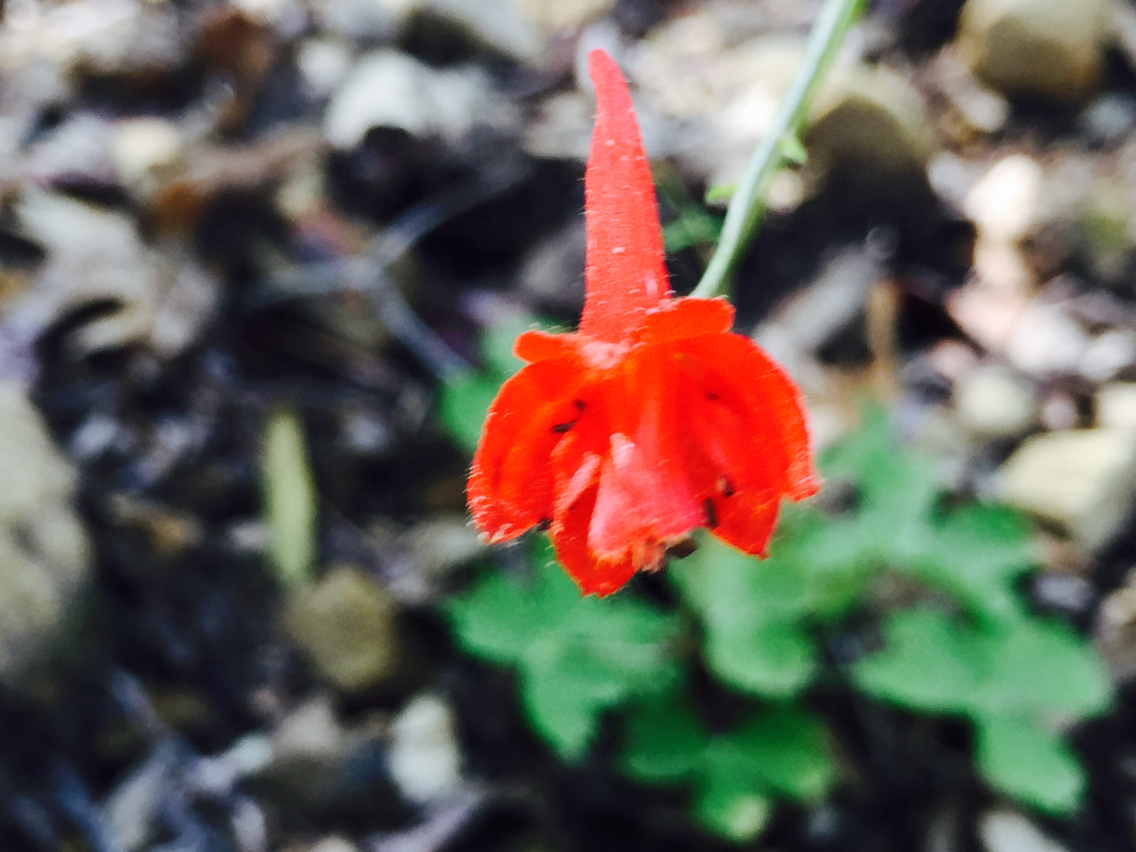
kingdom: Plantae
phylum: Tracheophyta
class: Magnoliopsida
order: Ranunculales
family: Ranunculaceae
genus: Delphinium
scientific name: Delphinium nudicaule
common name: Red larkspur
